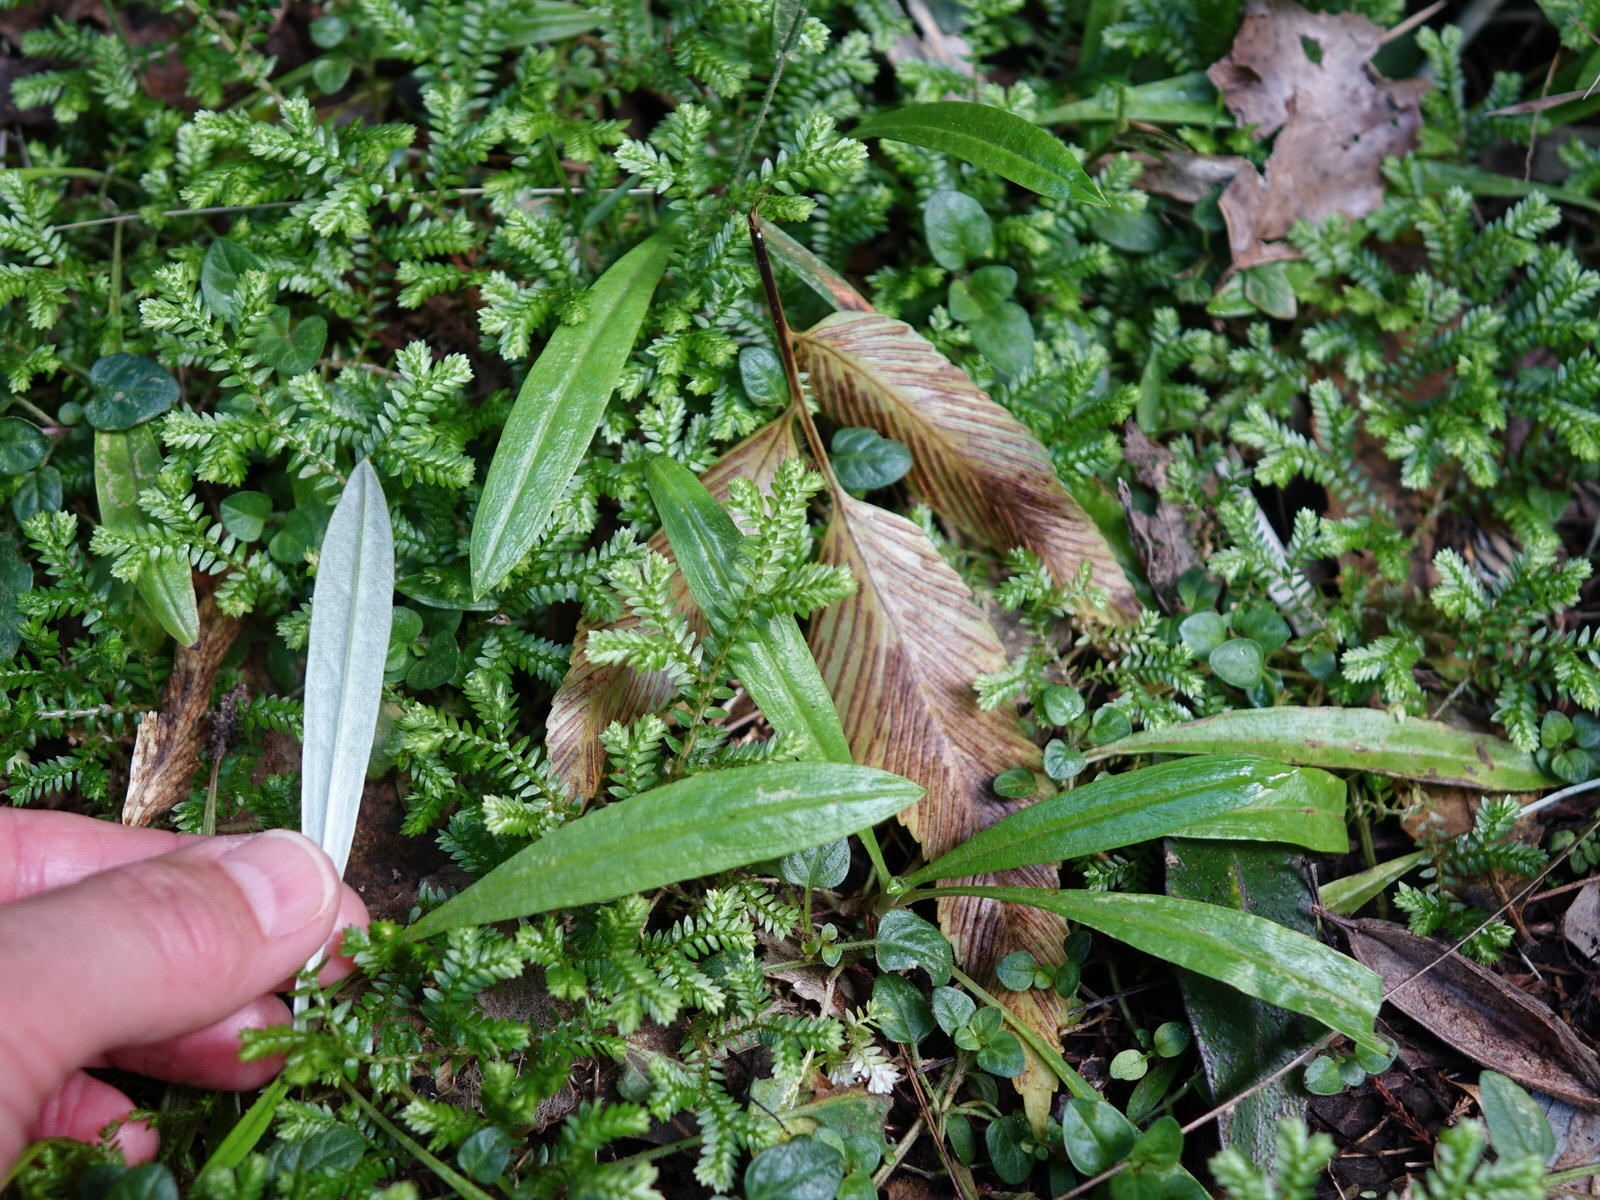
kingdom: Plantae
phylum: Tracheophyta
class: Magnoliopsida
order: Asterales
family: Asteraceae
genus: Euchiton
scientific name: Euchiton japonicus
